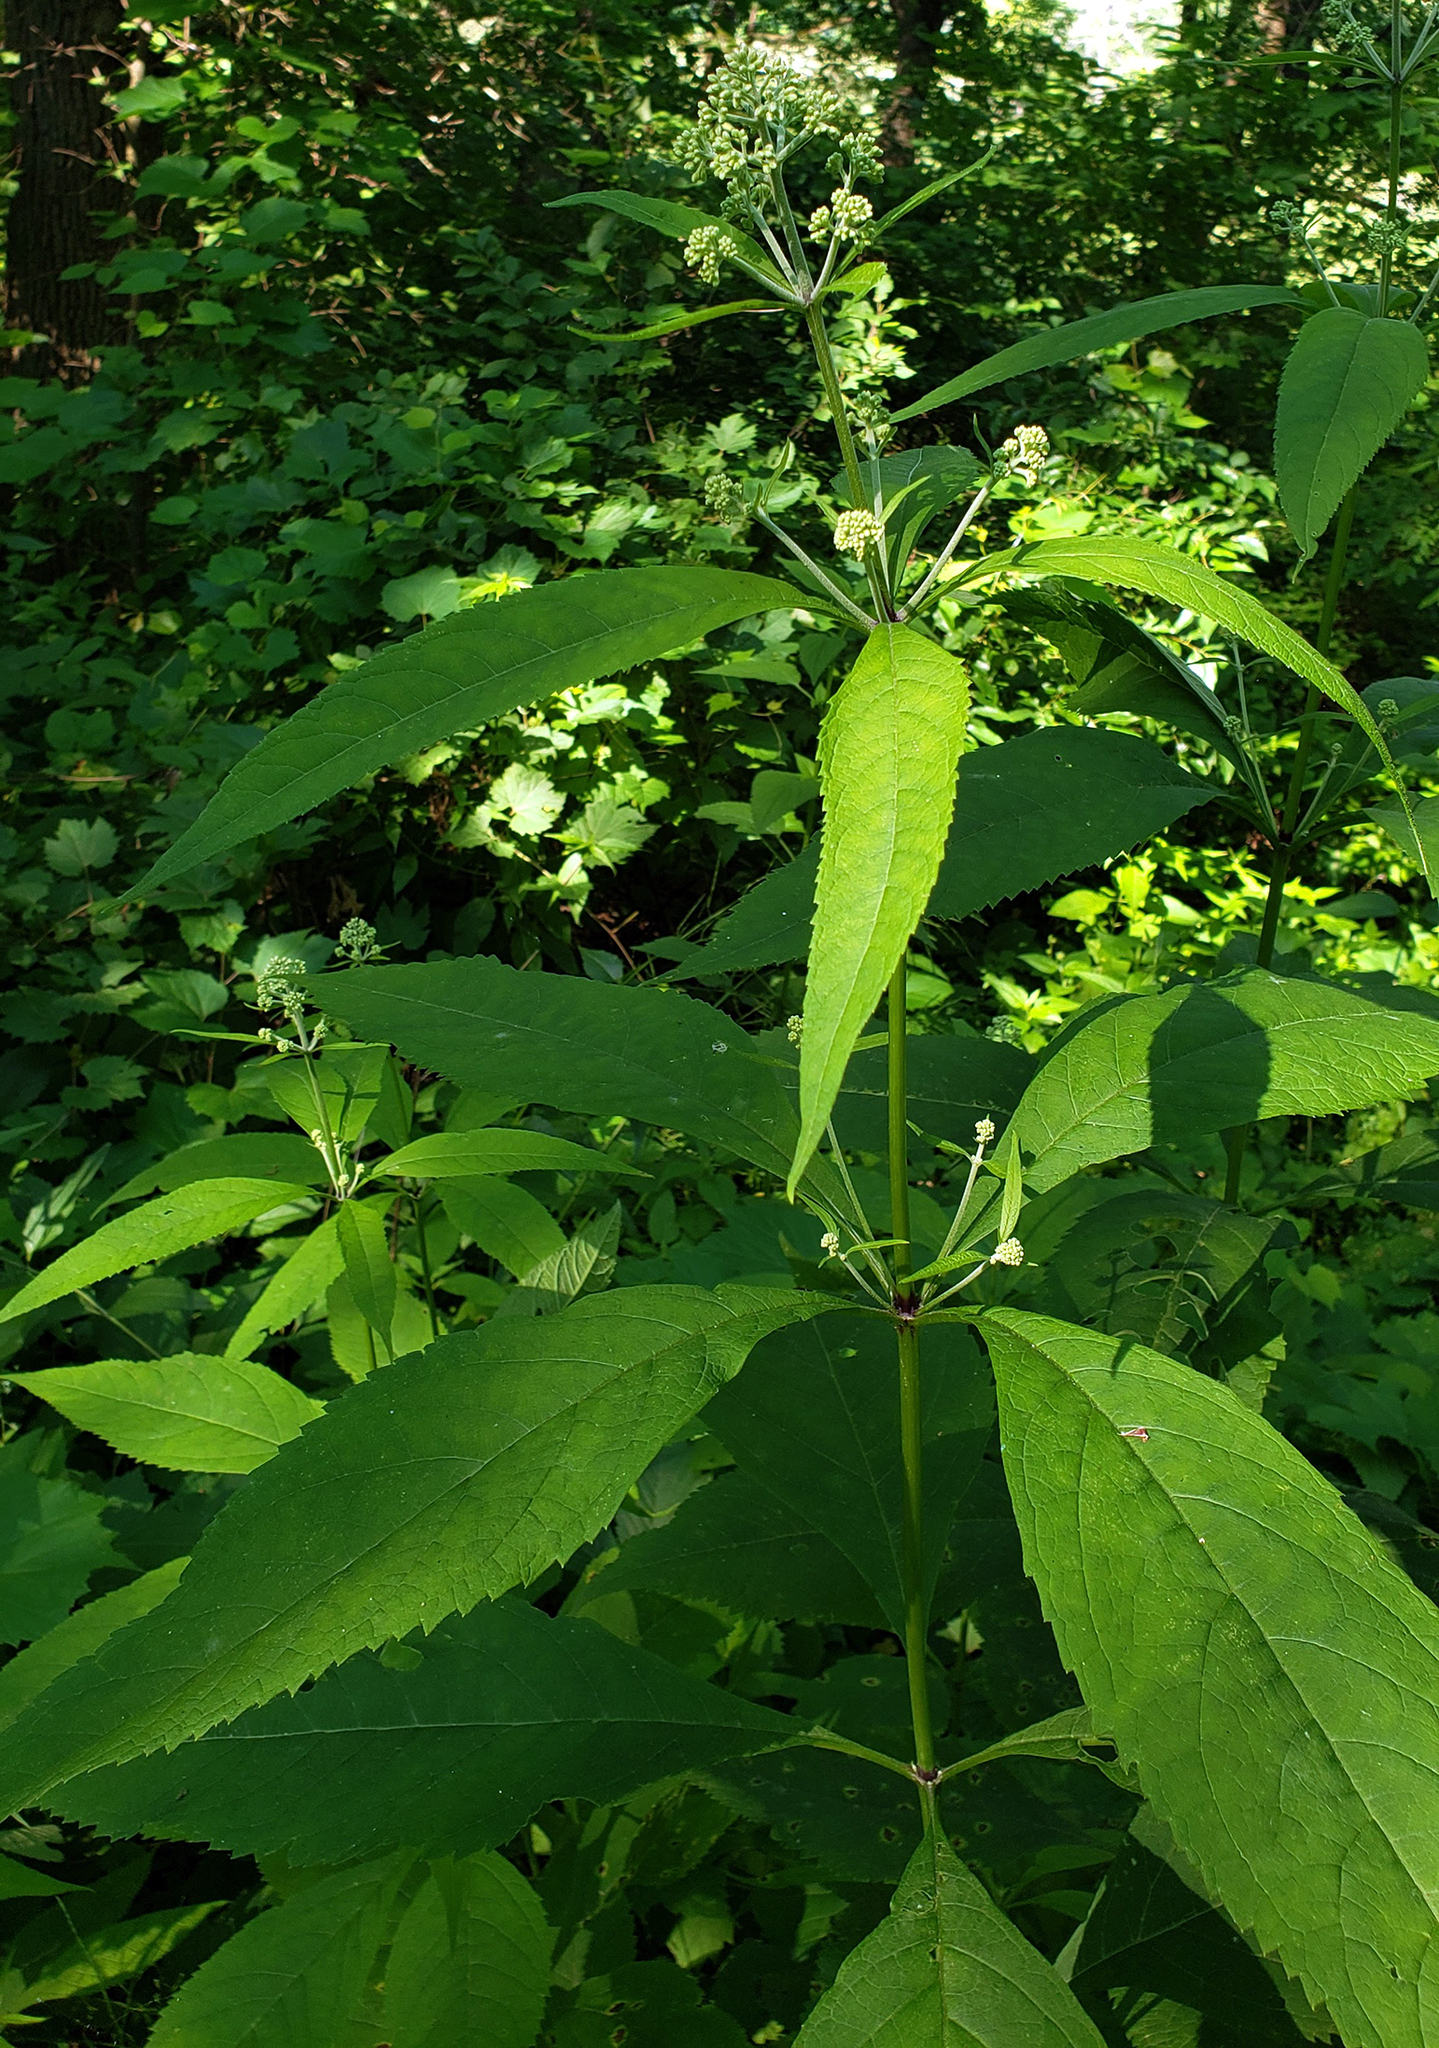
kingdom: Plantae
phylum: Tracheophyta
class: Magnoliopsida
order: Asterales
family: Asteraceae
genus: Eutrochium
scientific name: Eutrochium purpureum
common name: Gravelroot
